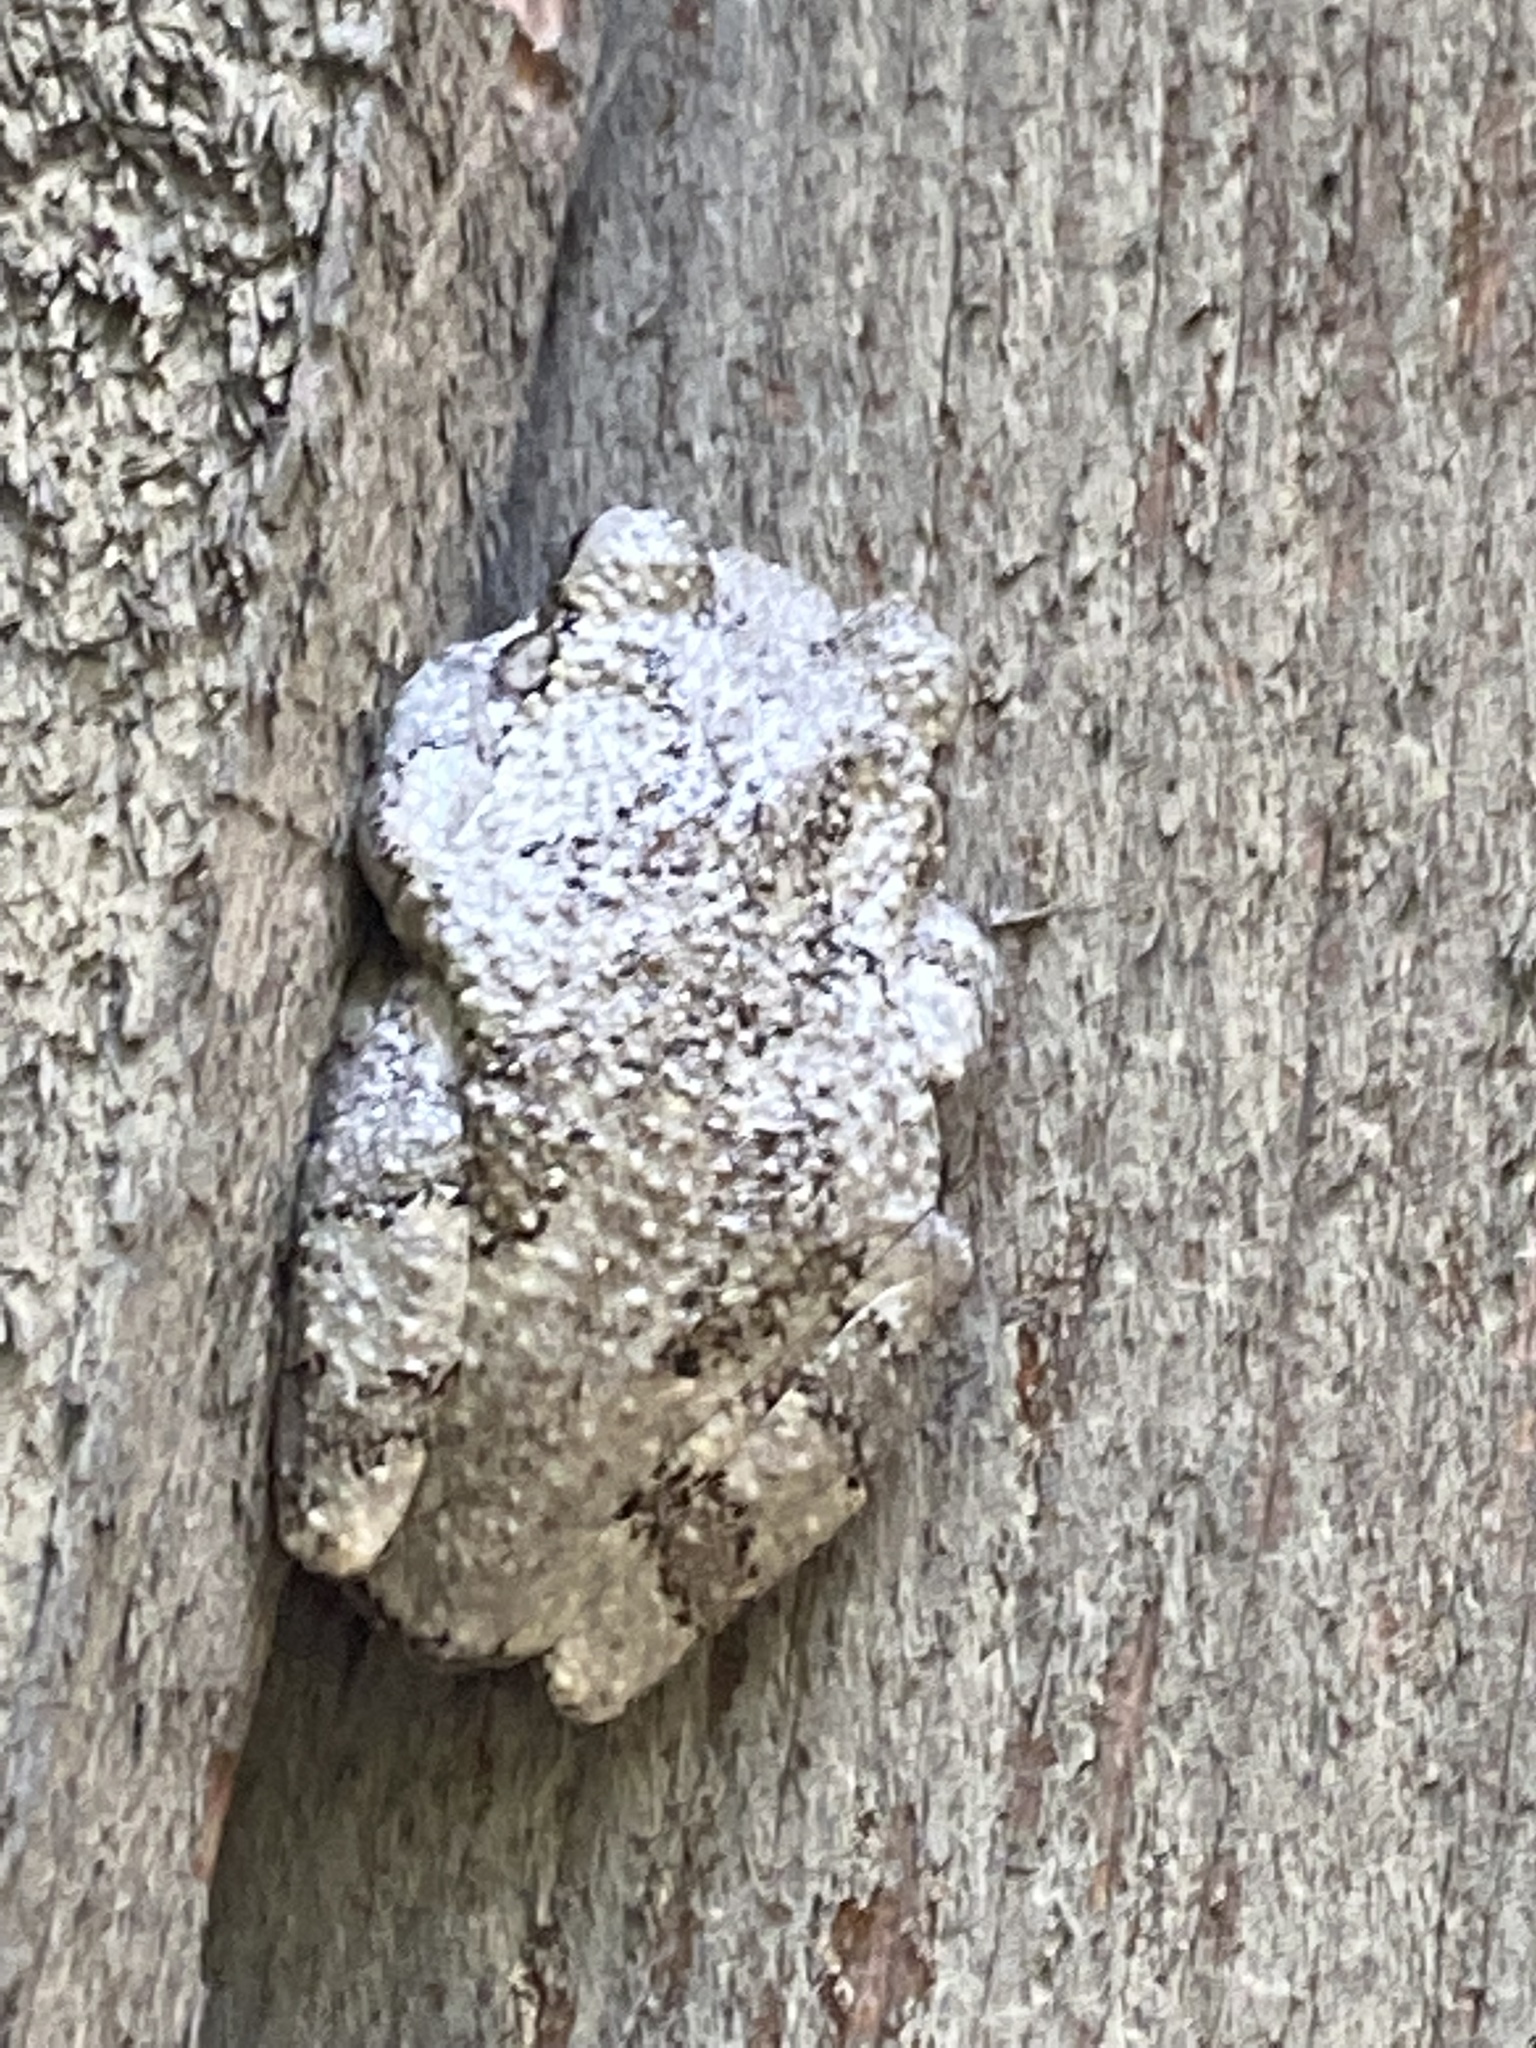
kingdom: Animalia
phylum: Chordata
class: Amphibia
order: Anura
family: Hylidae
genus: Dryophytes
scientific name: Dryophytes chrysoscelis
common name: Cope's gray treefrog
